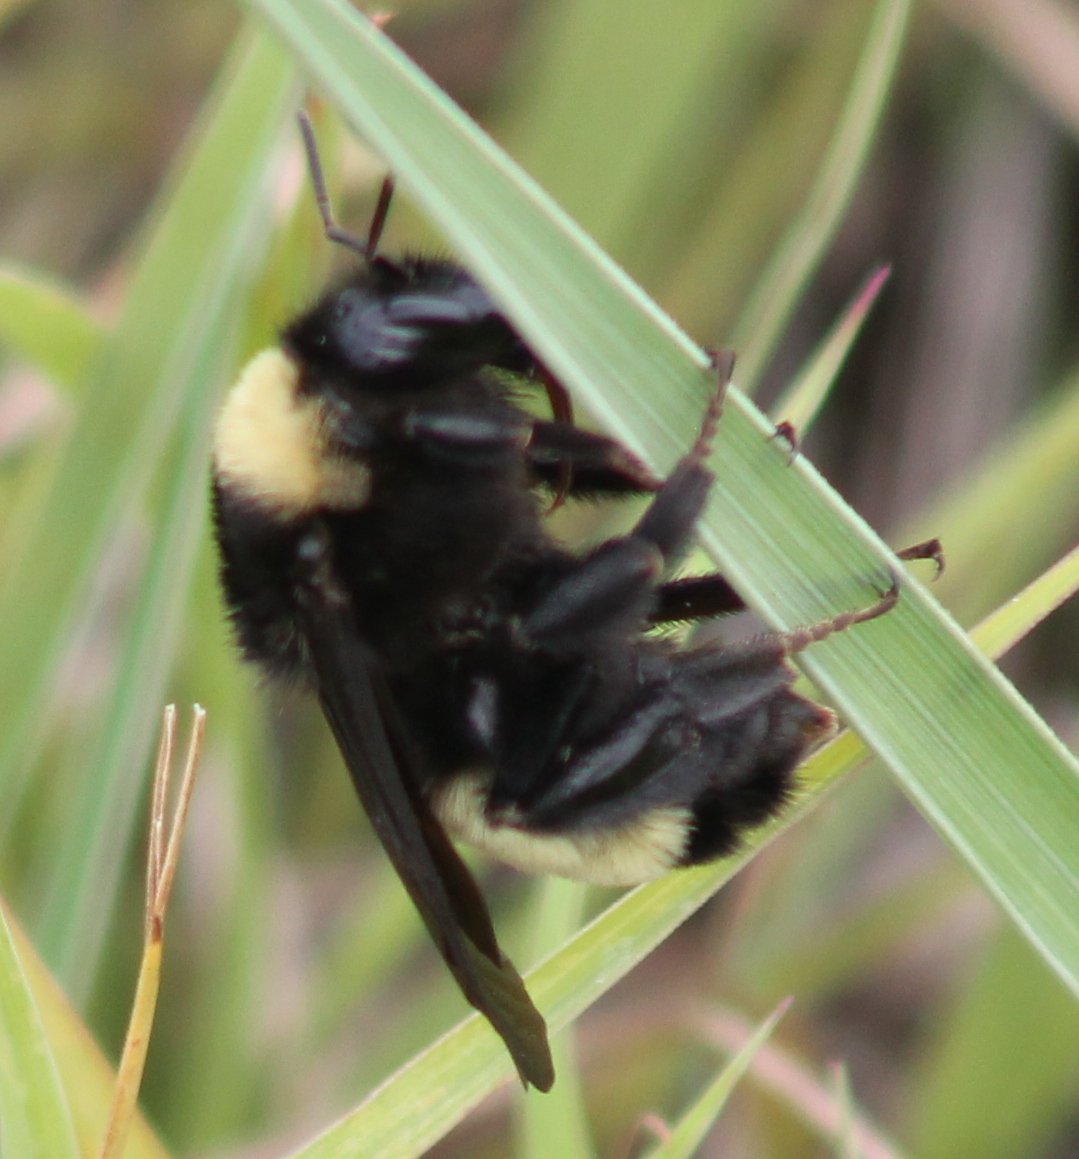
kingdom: Animalia
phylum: Arthropoda
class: Insecta
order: Hymenoptera
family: Apidae
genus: Bombus
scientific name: Bombus pensylvanicus
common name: Bumble bee
